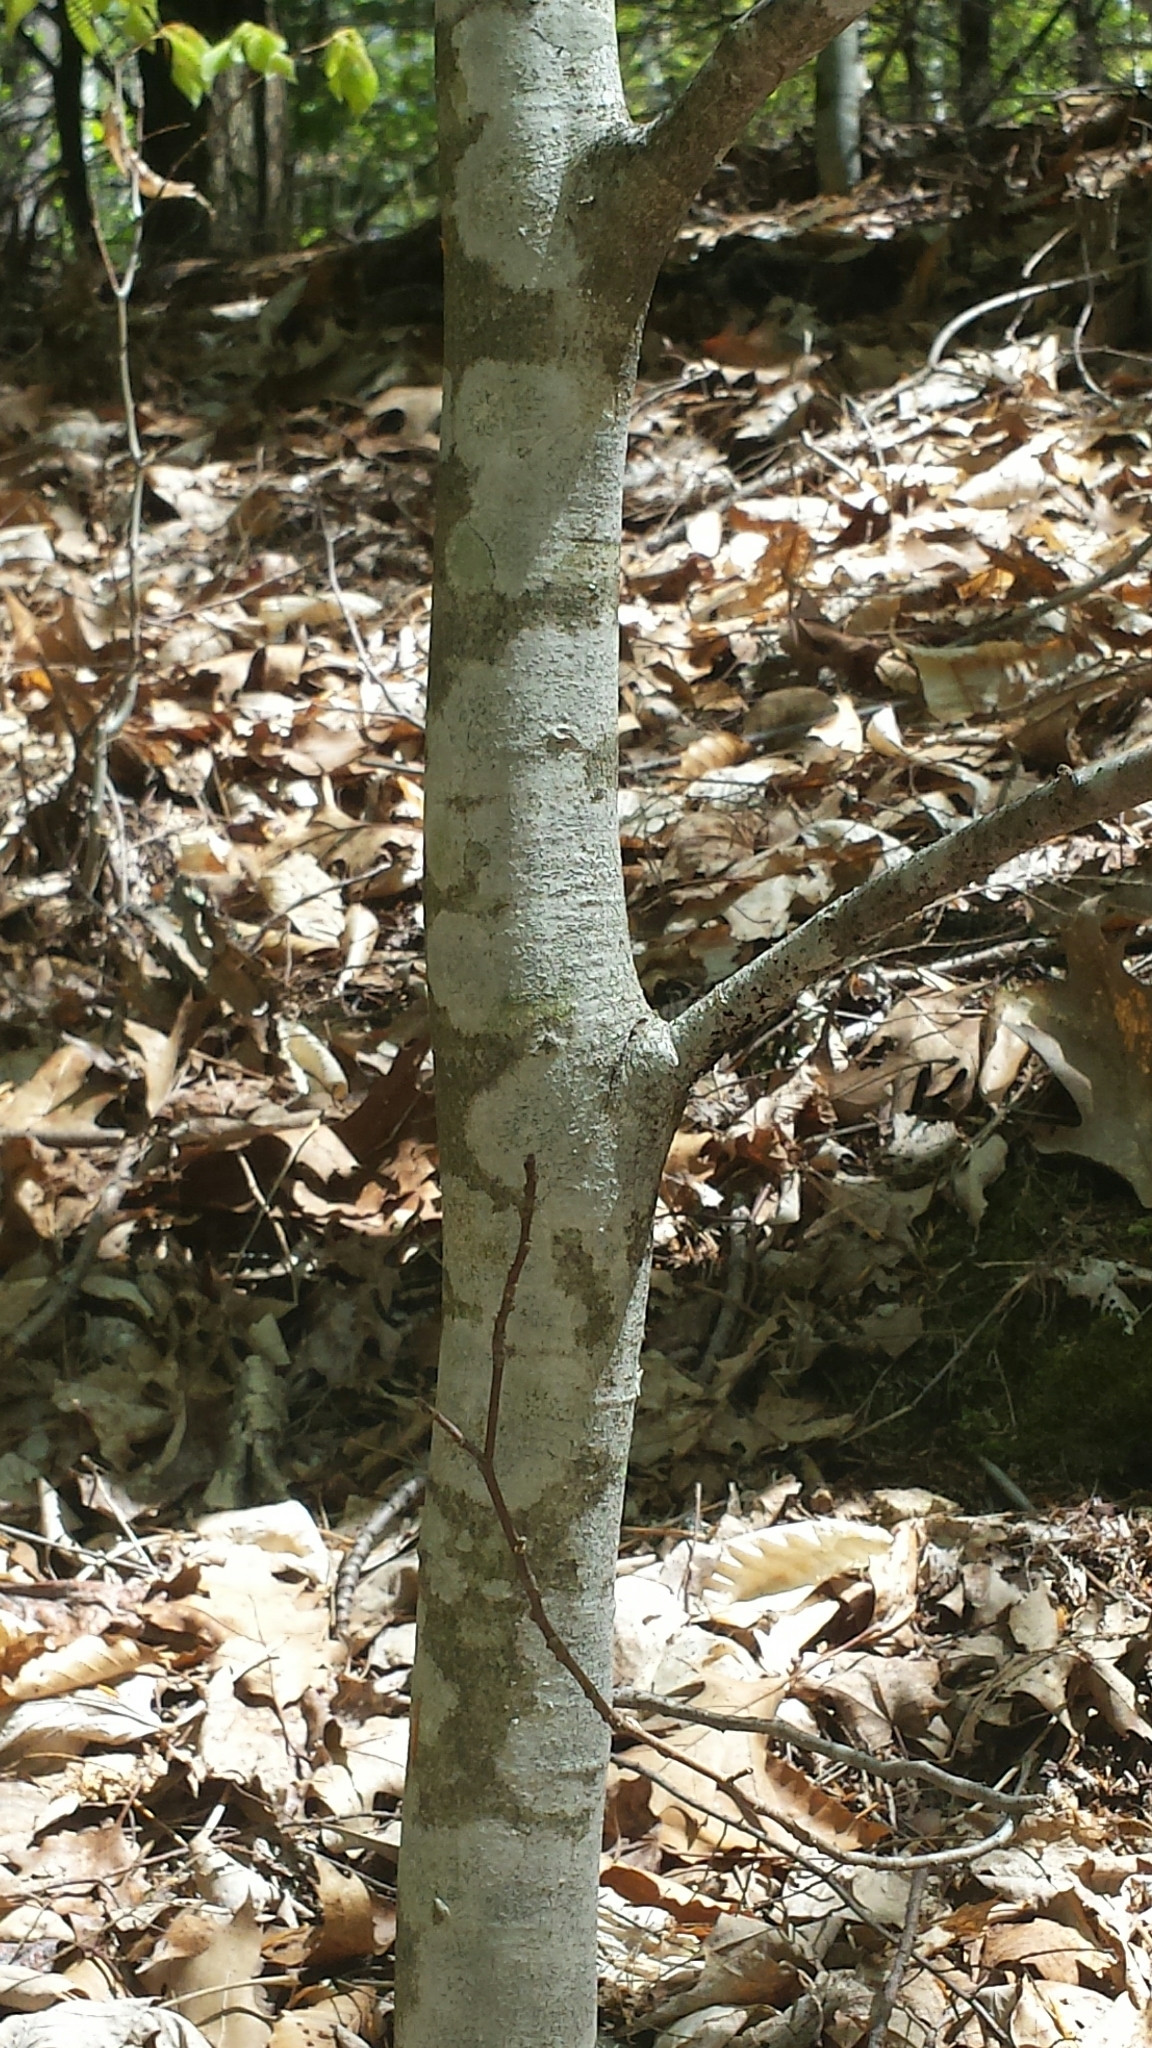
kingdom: Plantae
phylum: Tracheophyta
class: Magnoliopsida
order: Fagales
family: Fagaceae
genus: Fagus
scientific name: Fagus grandifolia
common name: American beech
